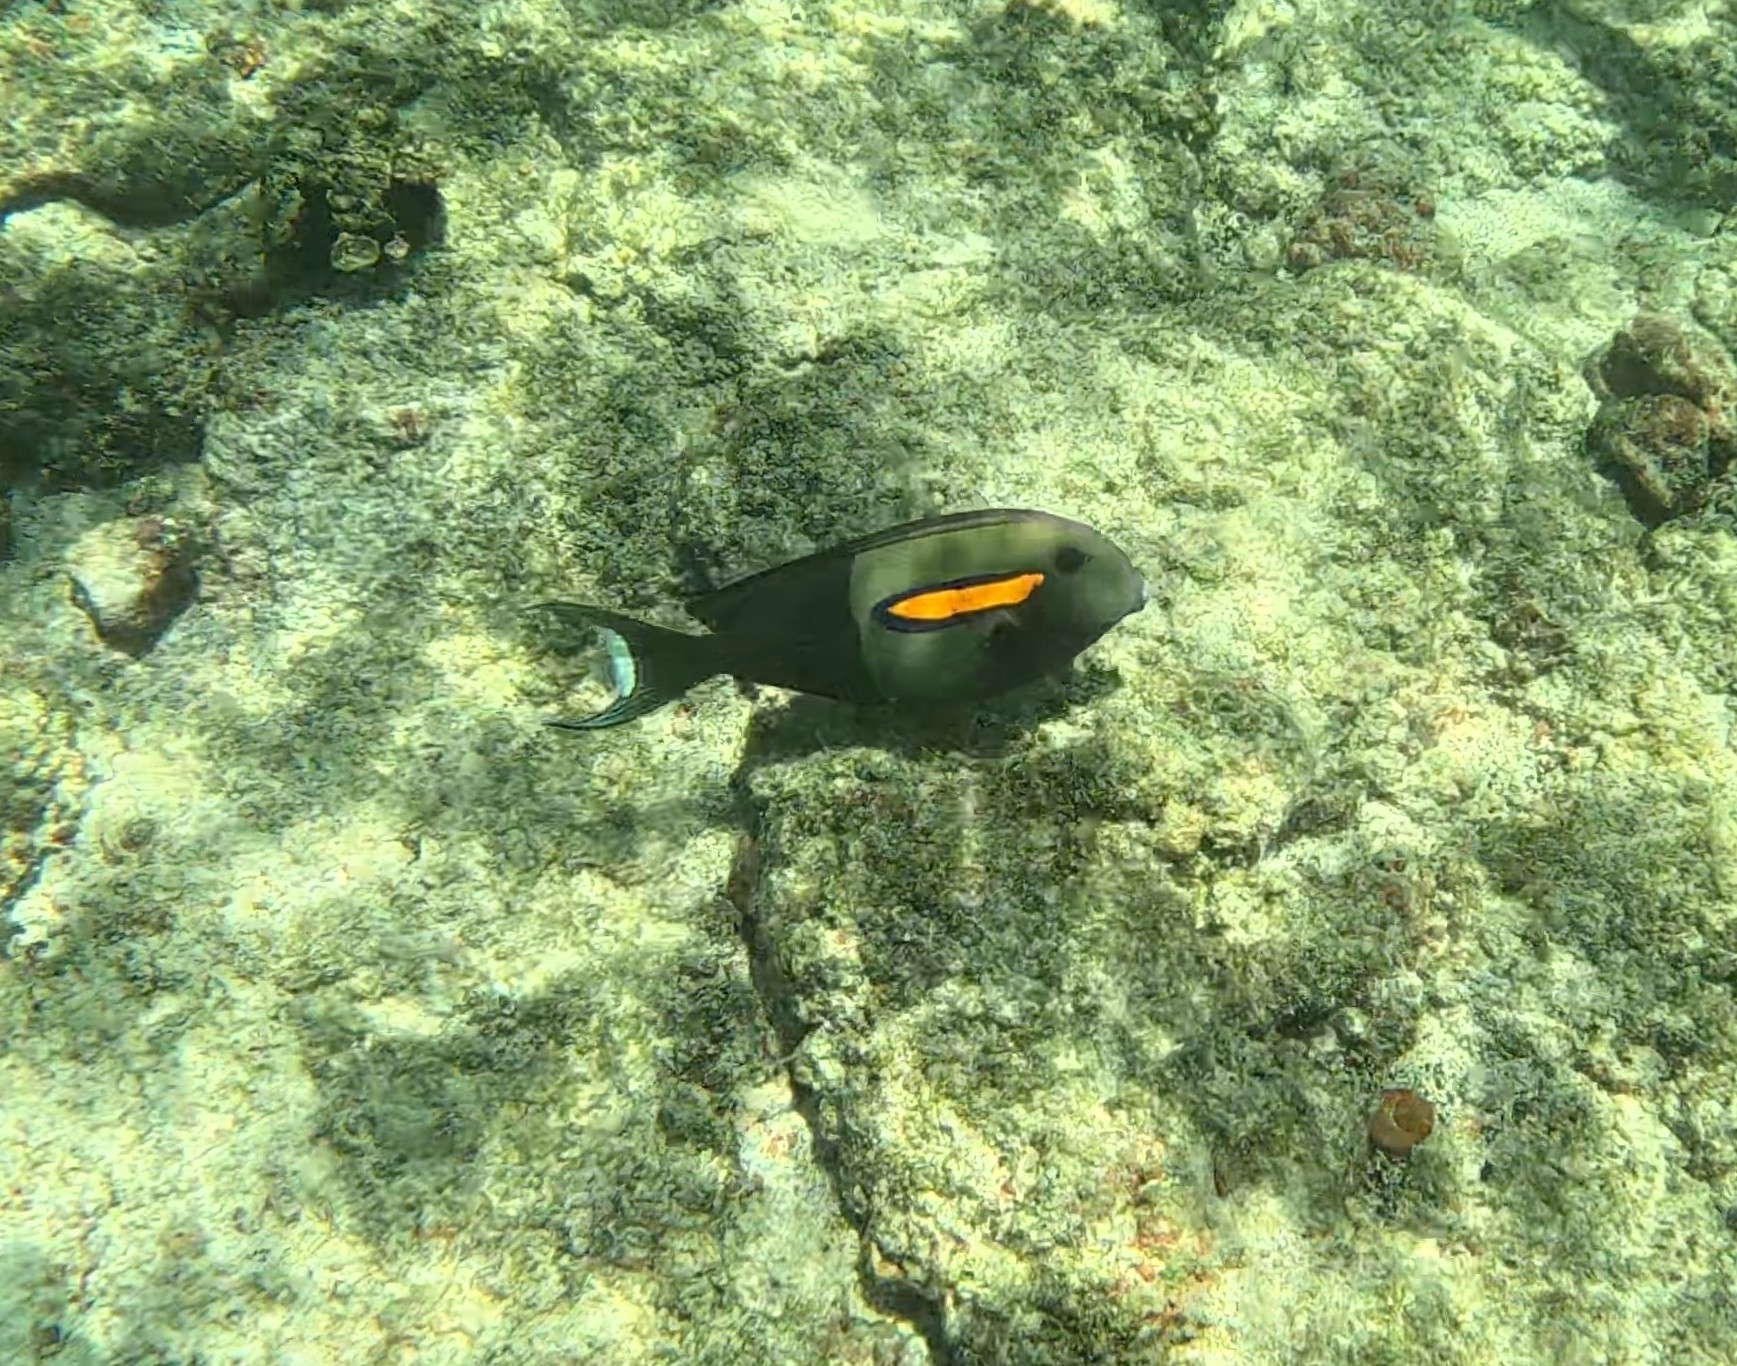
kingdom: Animalia
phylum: Chordata
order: Perciformes
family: Acanthuridae
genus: Acanthurus
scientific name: Acanthurus olivaceus
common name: Gendarme fish
